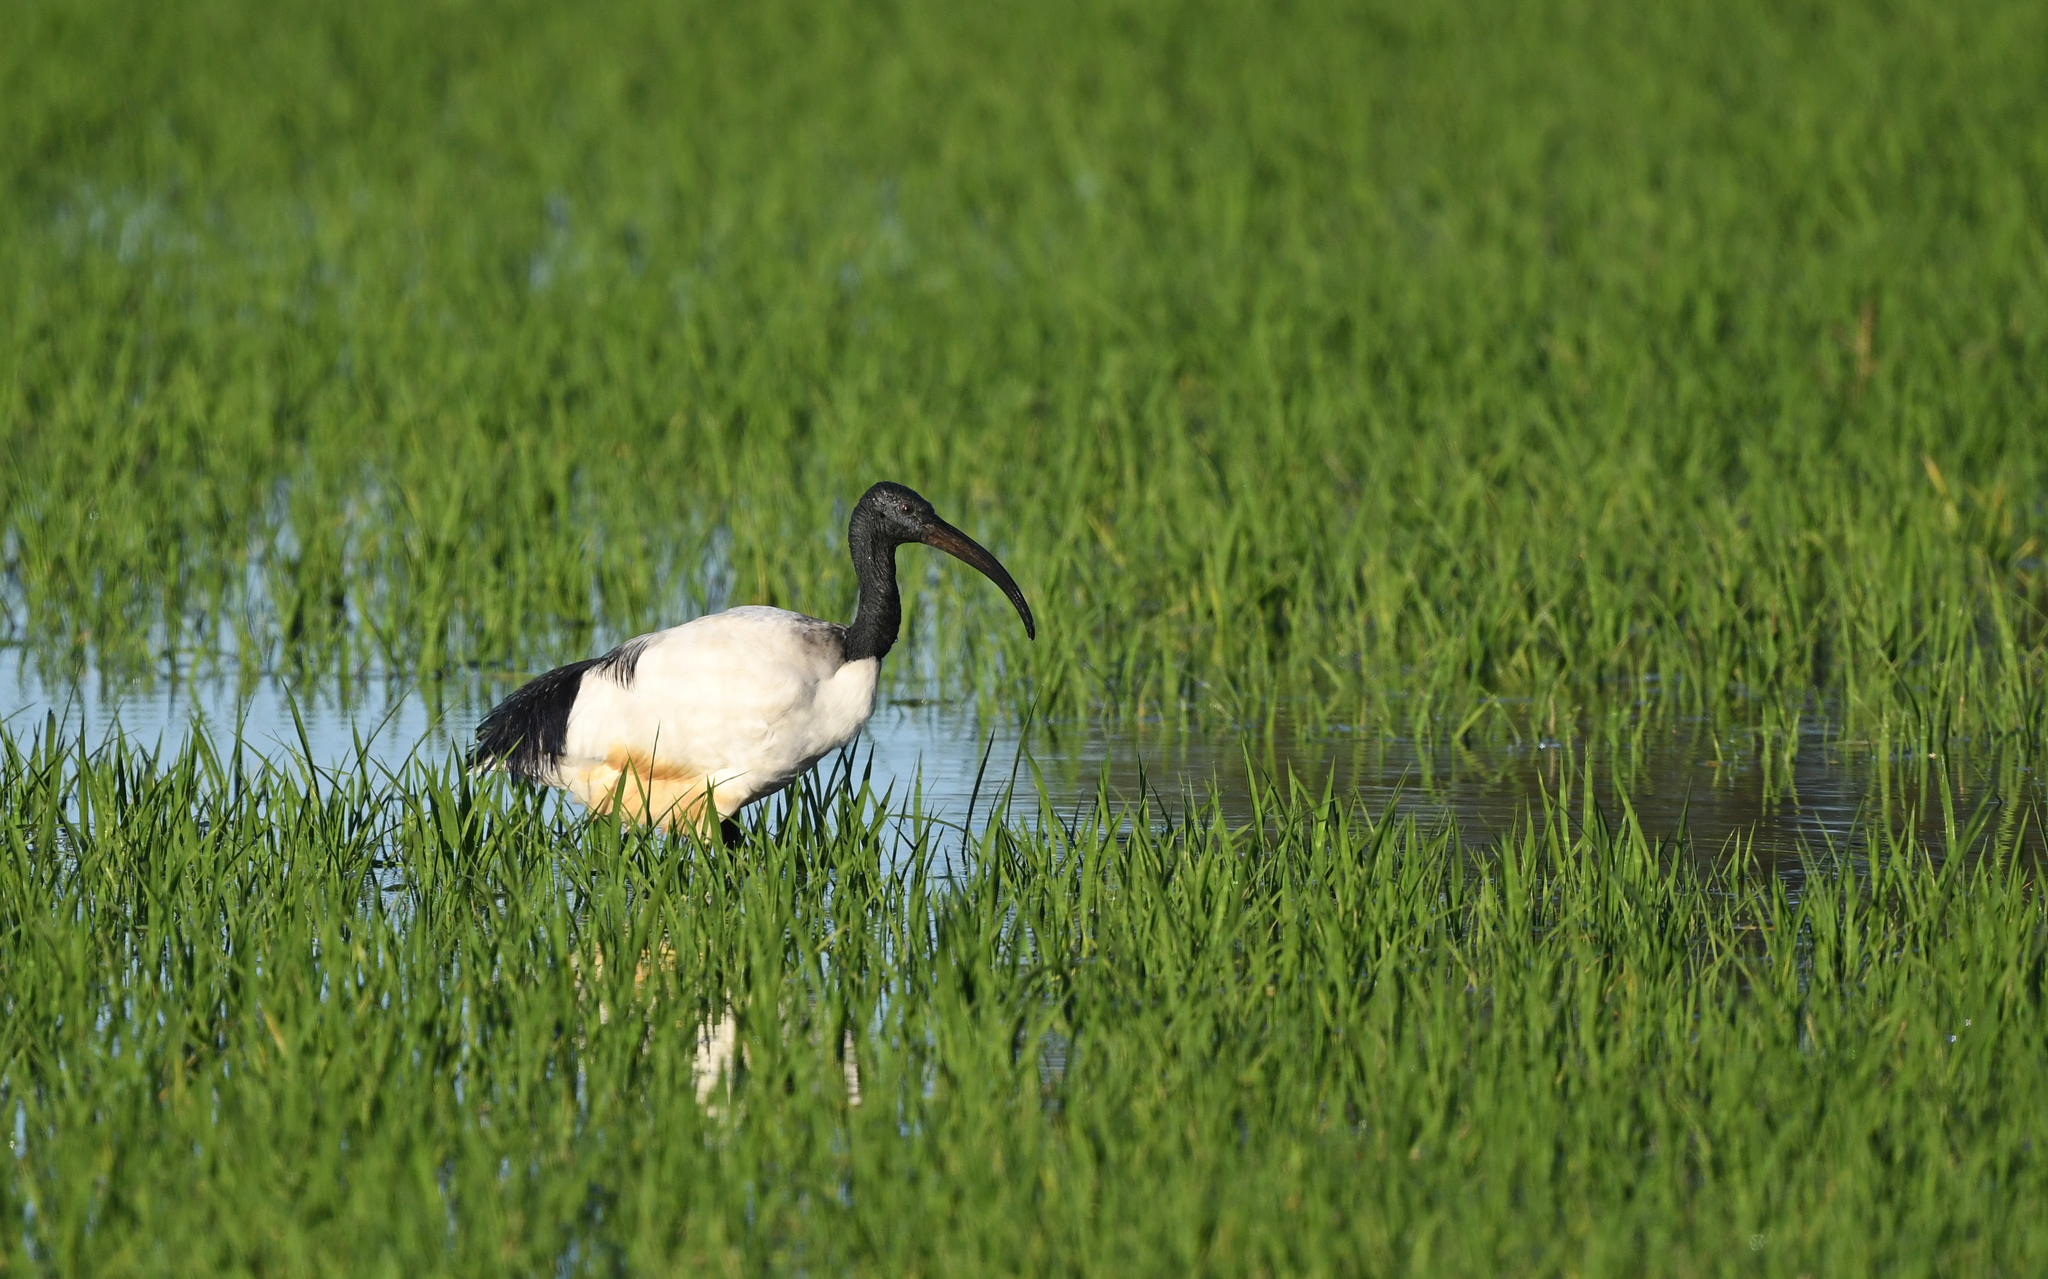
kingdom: Animalia
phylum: Chordata
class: Aves
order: Pelecaniformes
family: Threskiornithidae
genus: Threskiornis
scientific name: Threskiornis aethiopicus
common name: Sacred ibis
